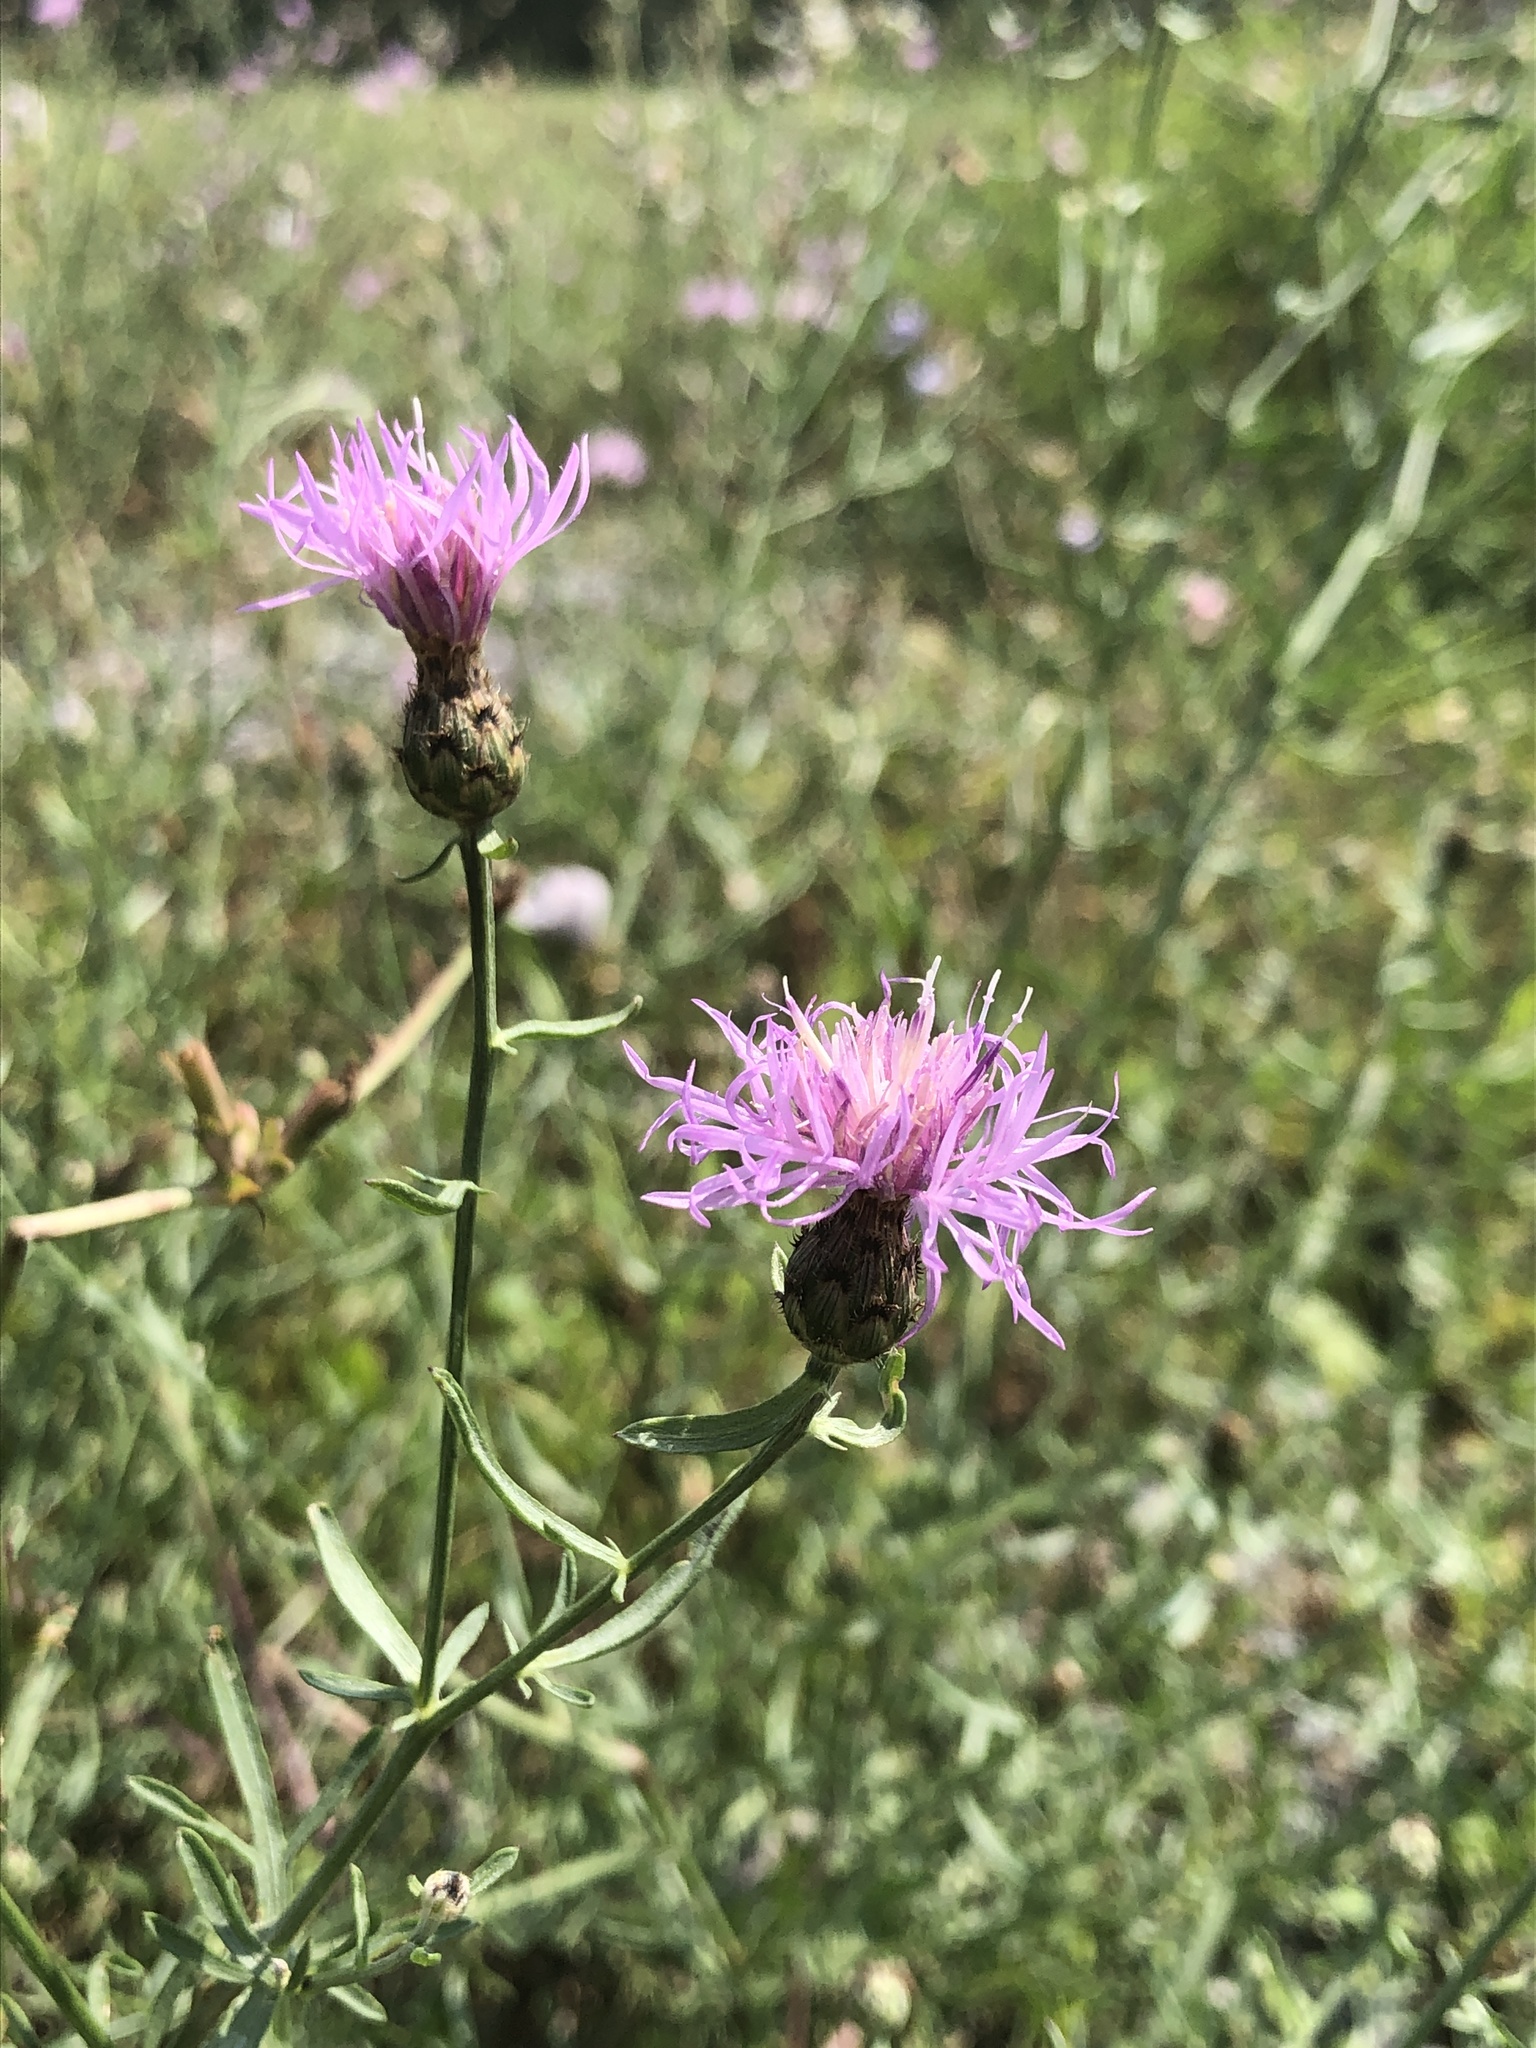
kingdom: Plantae
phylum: Tracheophyta
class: Magnoliopsida
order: Asterales
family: Asteraceae
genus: Centaurea
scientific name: Centaurea stoebe
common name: Spotted knapweed
